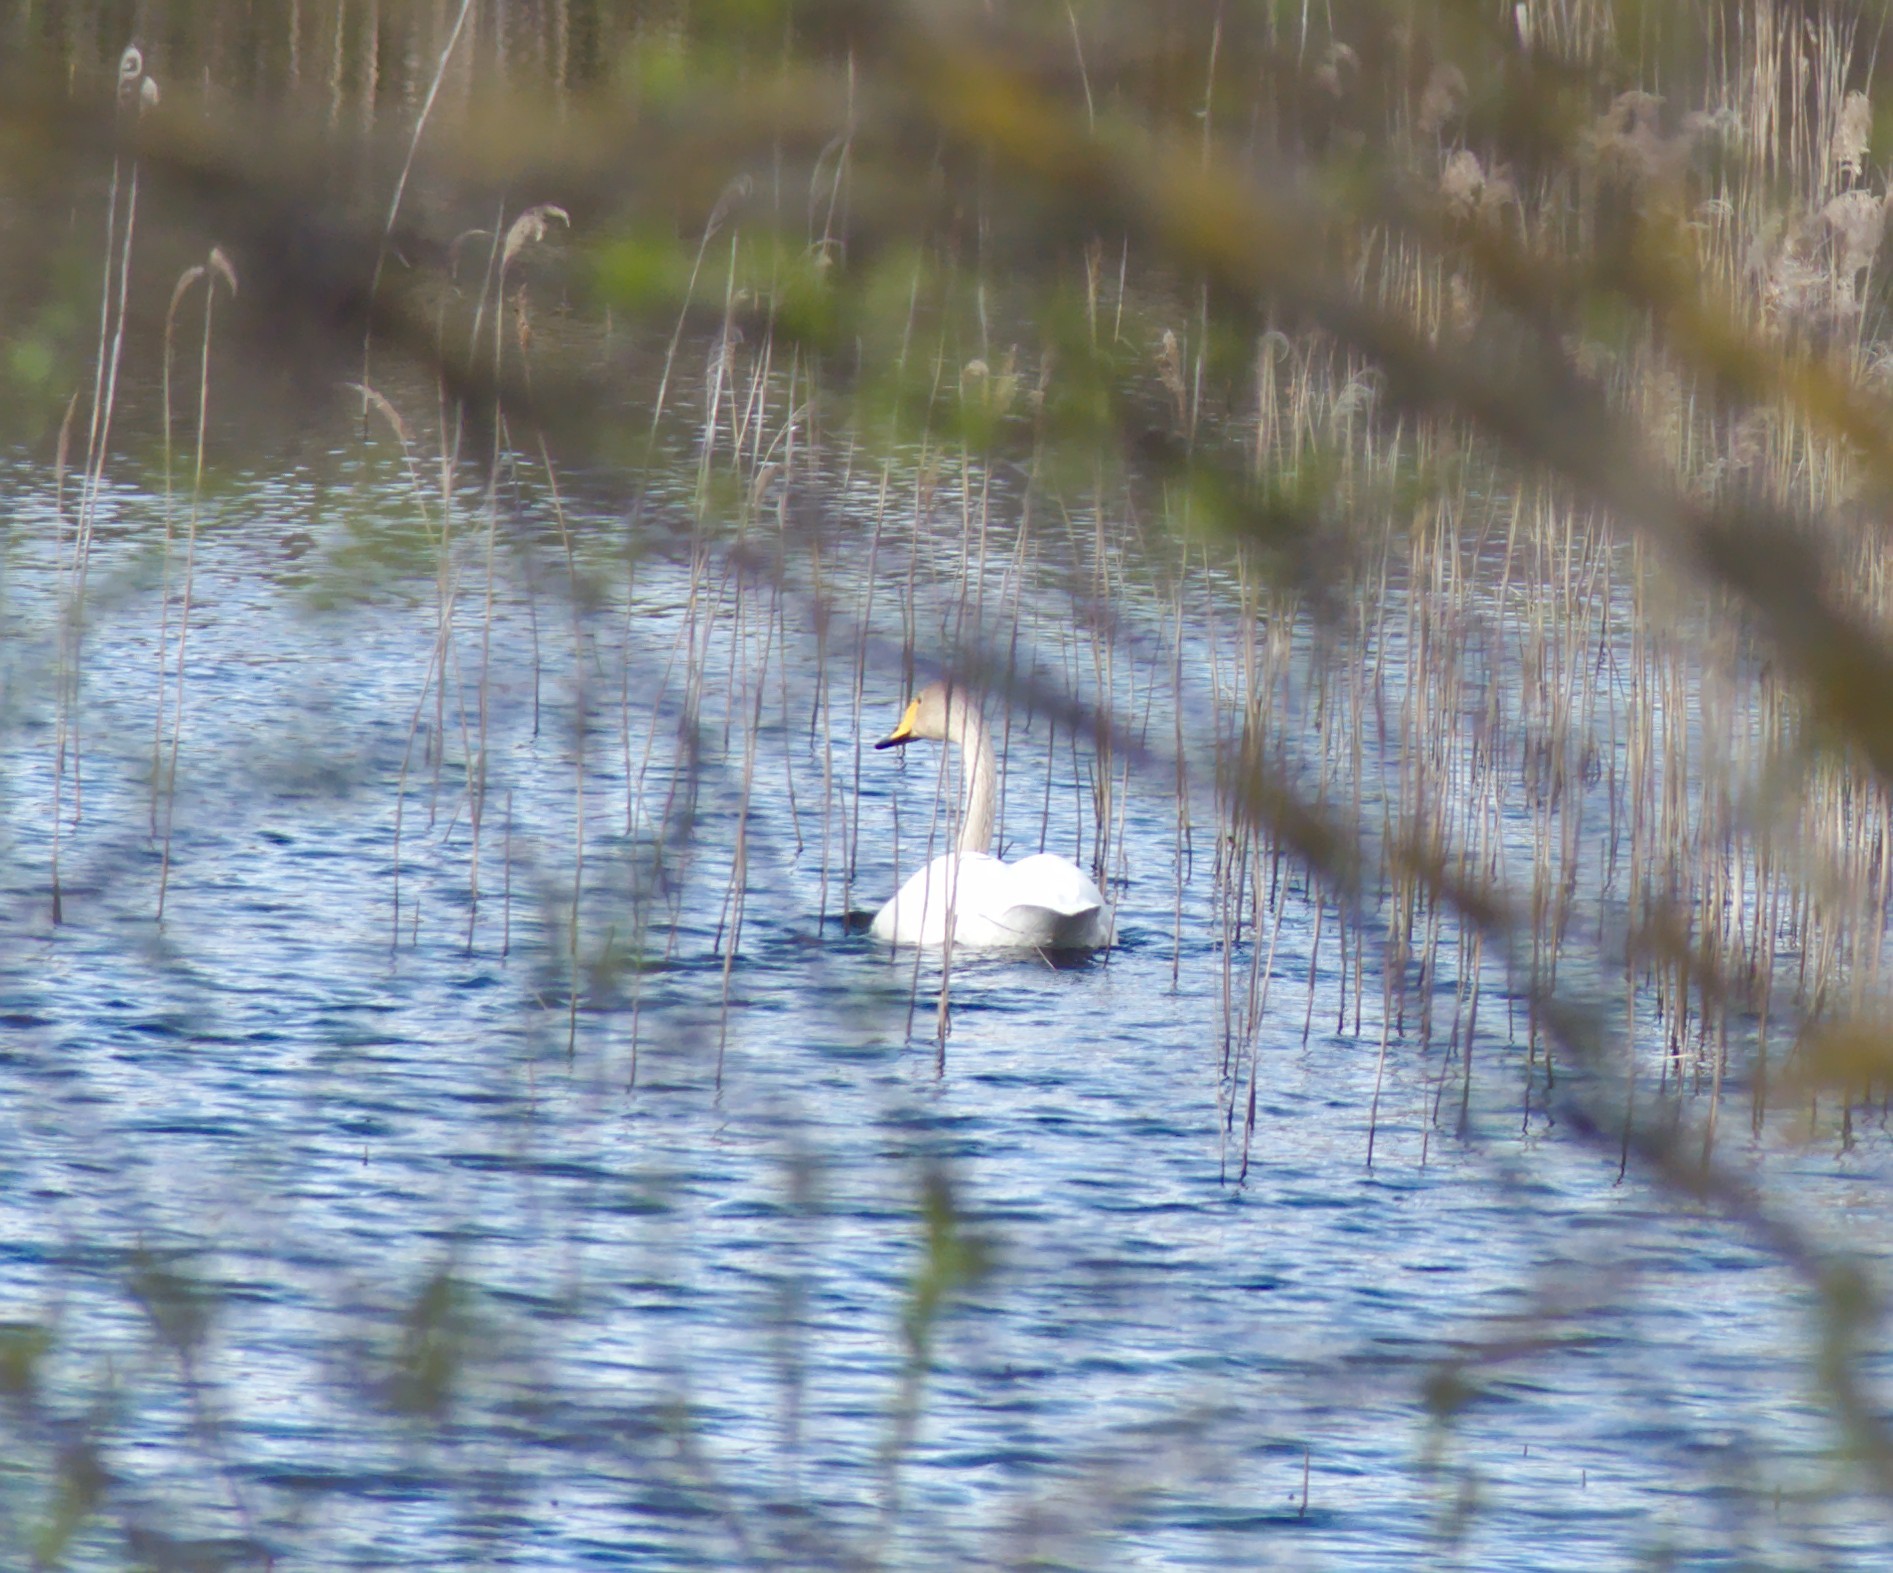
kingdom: Animalia
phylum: Chordata
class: Aves
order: Anseriformes
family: Anatidae
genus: Cygnus
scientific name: Cygnus cygnus
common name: Whooper swan
